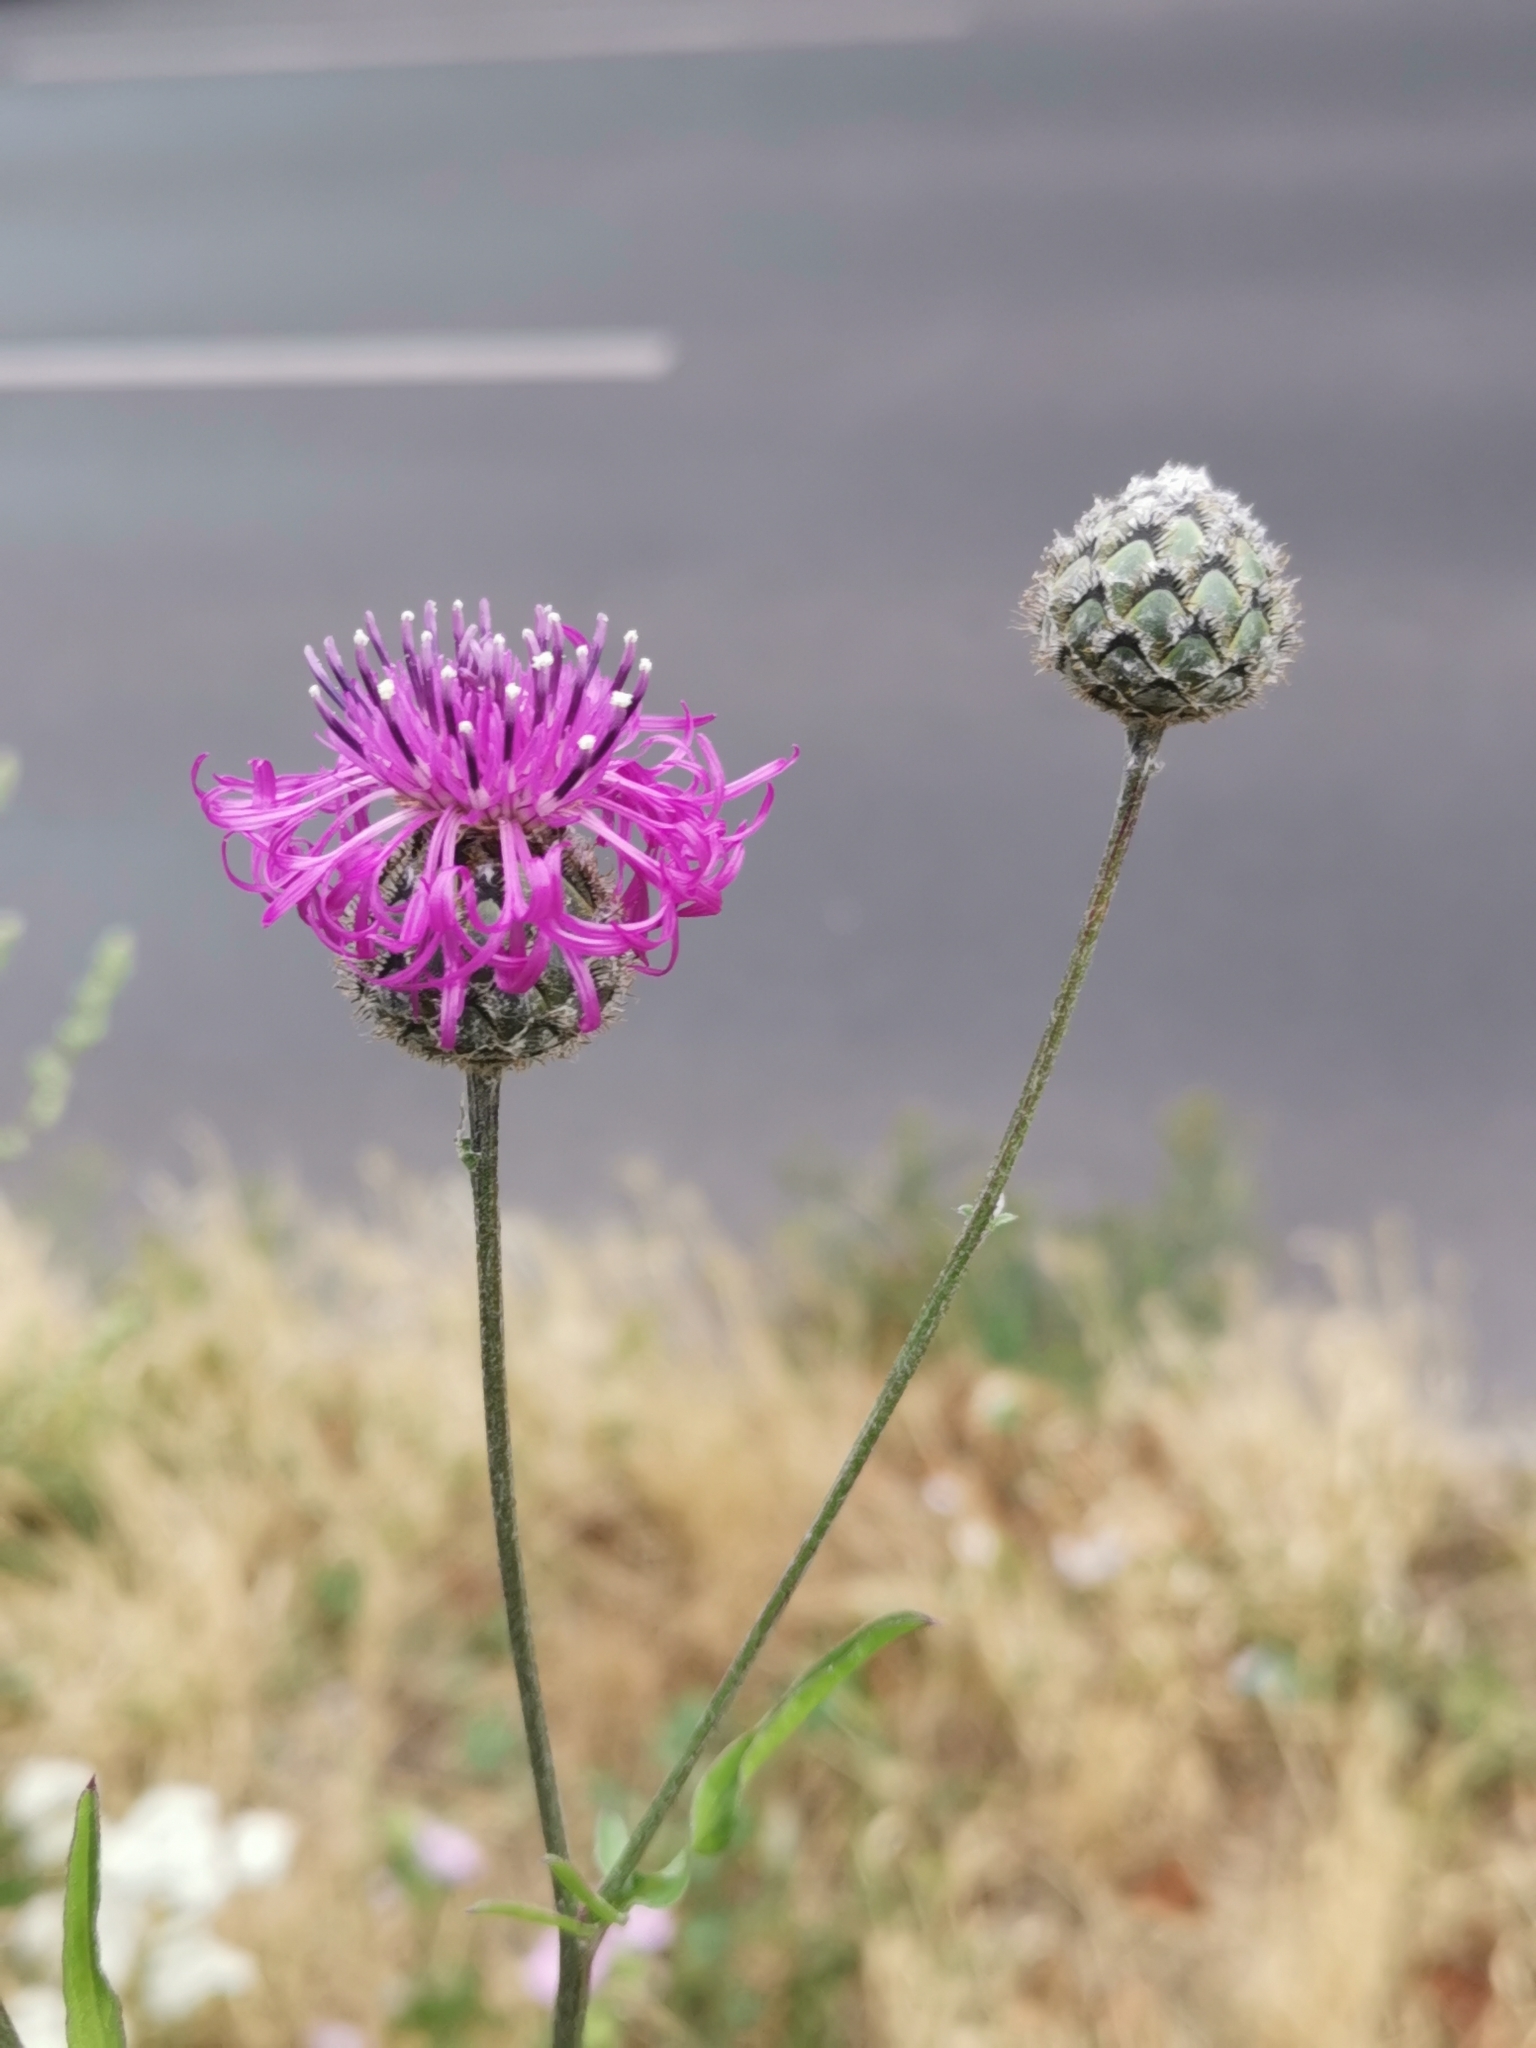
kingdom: Plantae
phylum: Tracheophyta
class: Magnoliopsida
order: Asterales
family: Asteraceae
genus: Centaurea
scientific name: Centaurea scabiosa
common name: Greater knapweed
